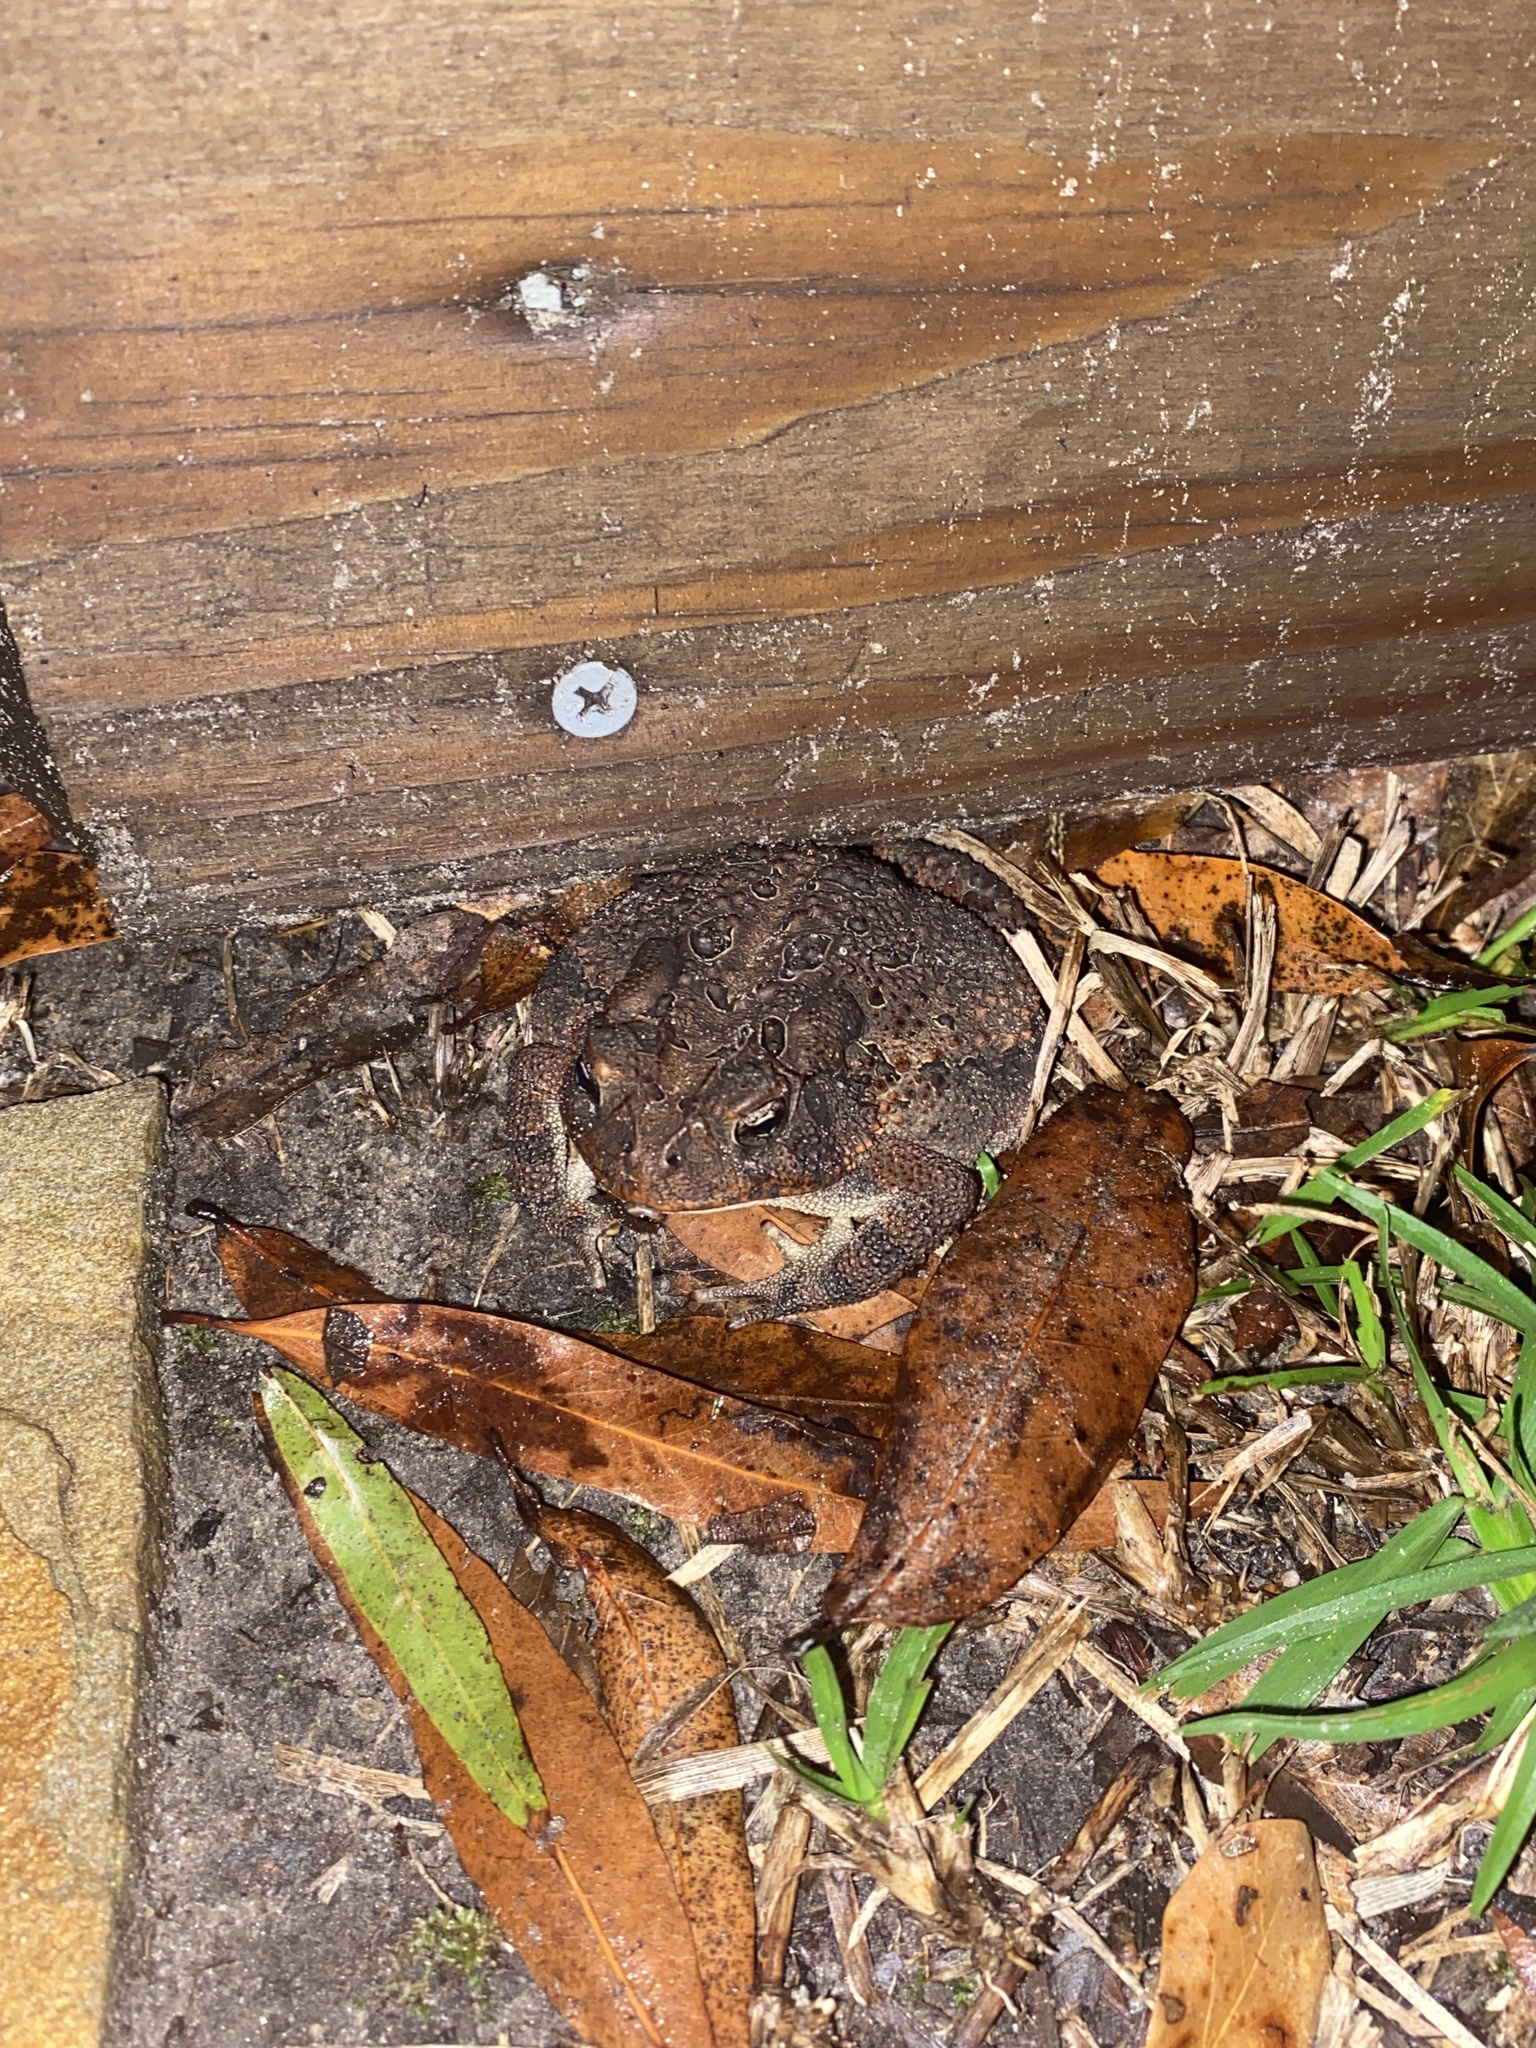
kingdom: Animalia
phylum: Chordata
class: Amphibia
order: Anura
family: Bufonidae
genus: Anaxyrus
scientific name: Anaxyrus terrestris
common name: Southern toad
